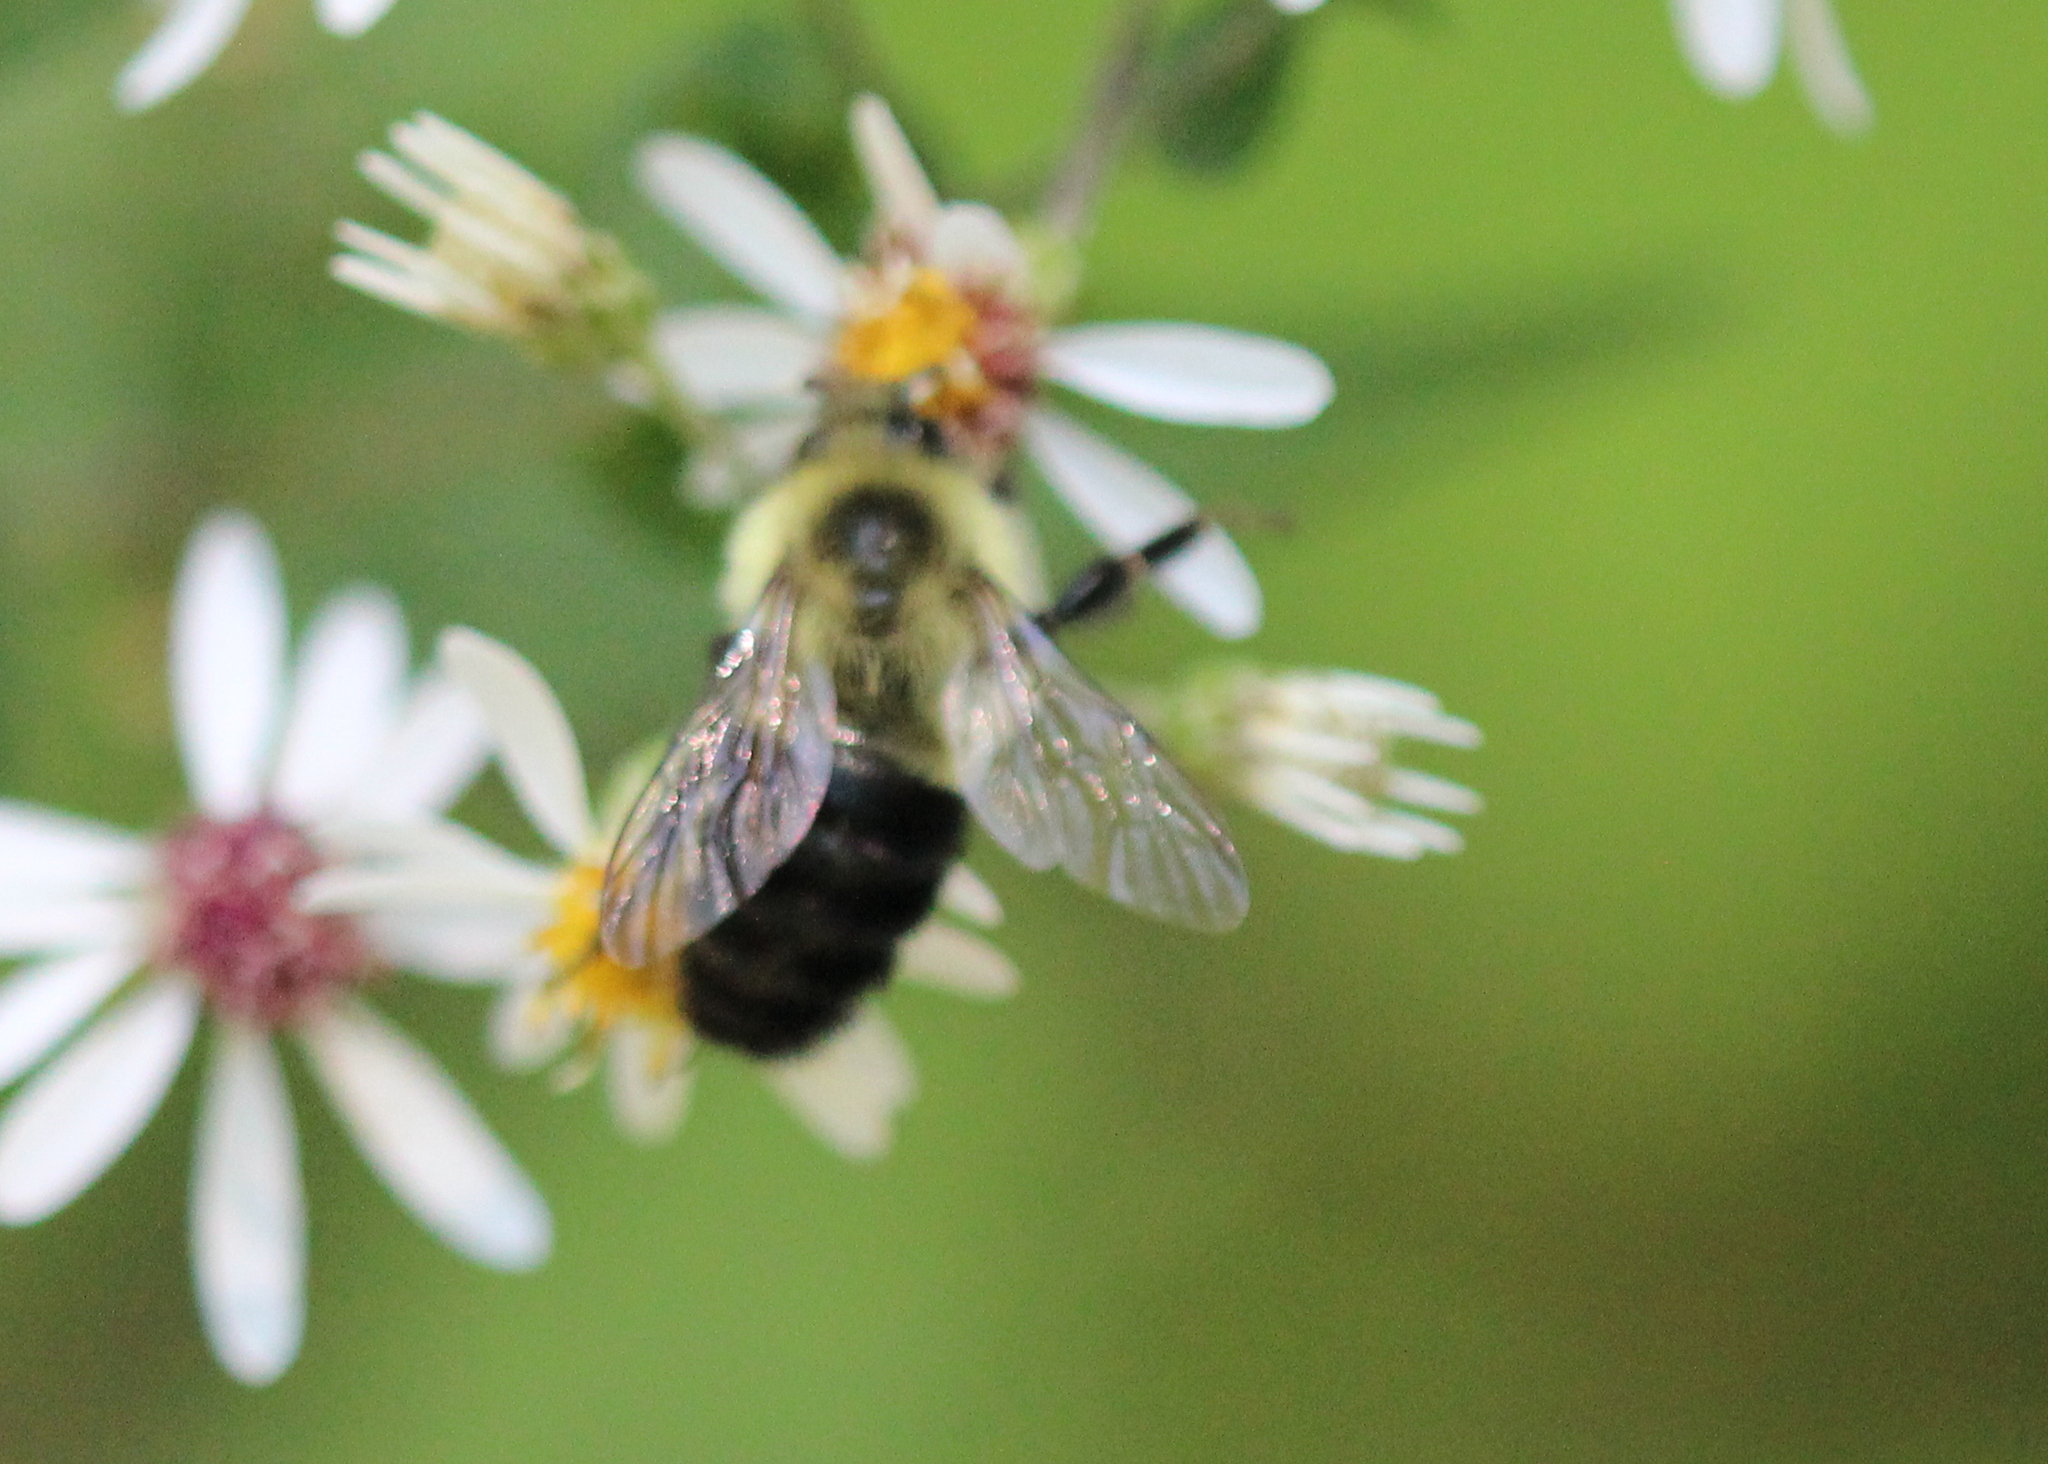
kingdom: Animalia
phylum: Arthropoda
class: Insecta
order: Hymenoptera
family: Apidae
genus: Bombus
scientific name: Bombus impatiens
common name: Common eastern bumble bee
